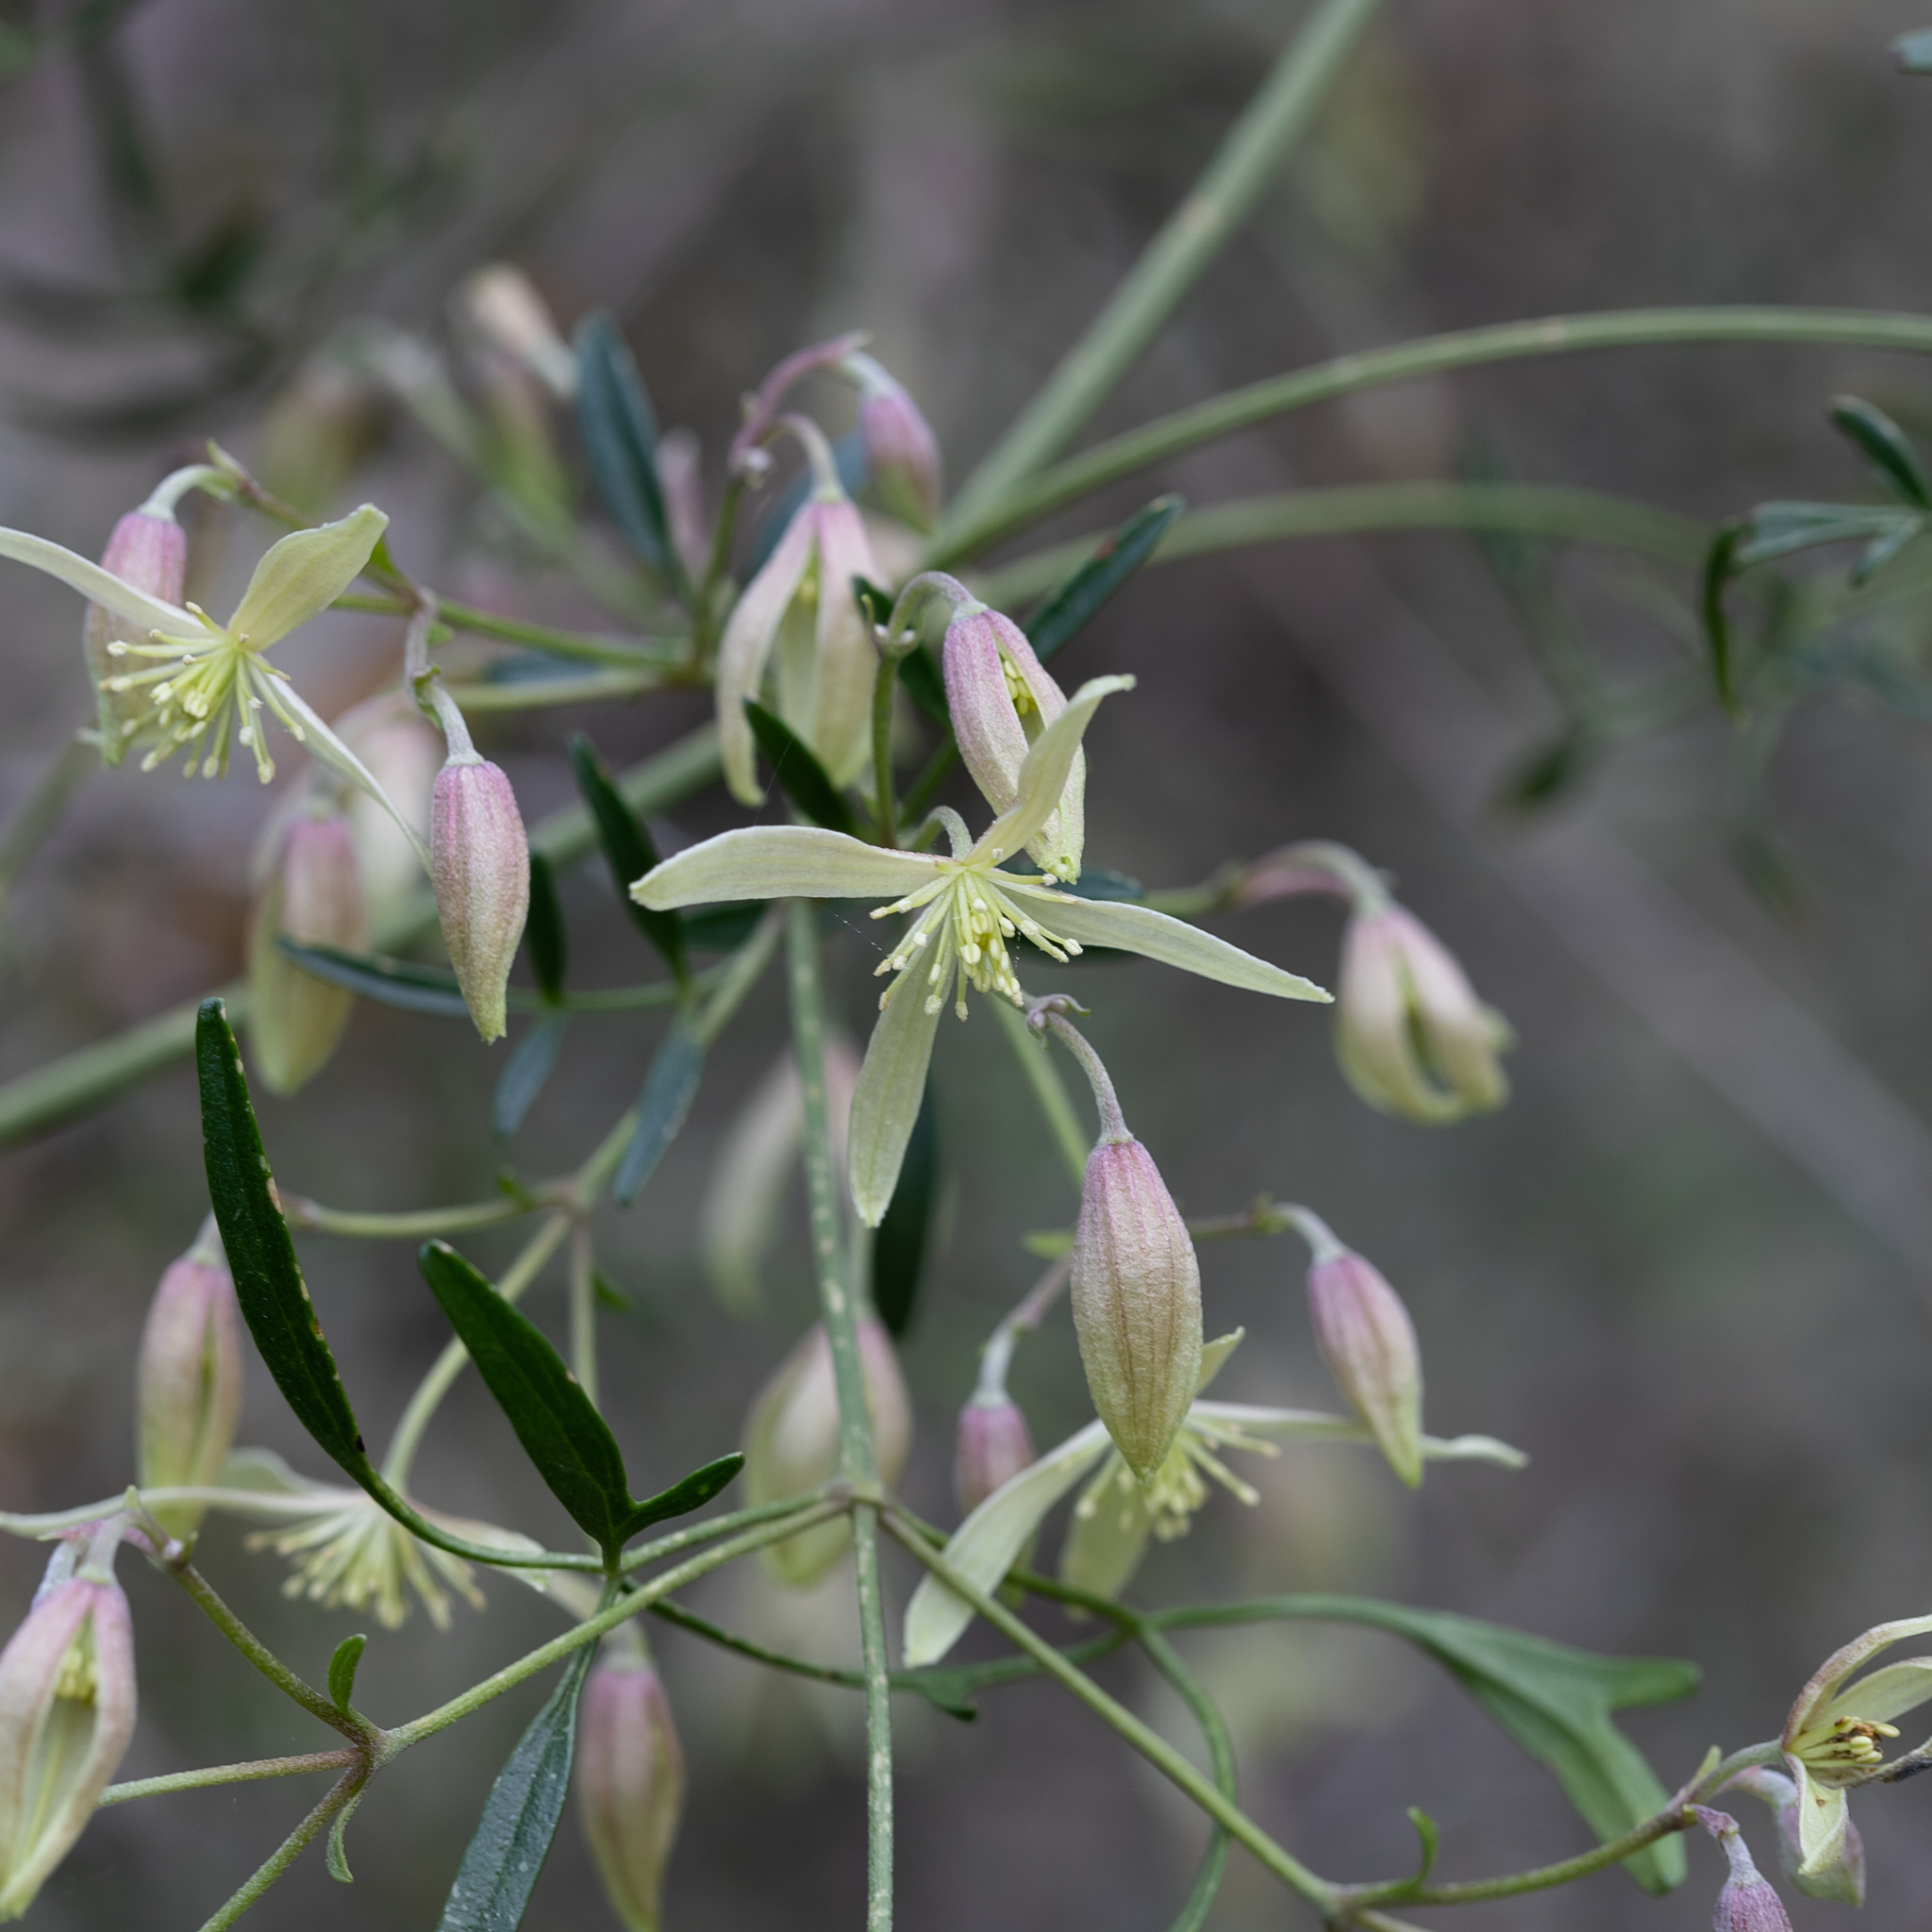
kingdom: Plantae
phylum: Tracheophyta
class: Magnoliopsida
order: Ranunculales
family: Ranunculaceae
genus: Clematis
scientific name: Clematis microphylla
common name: Headachevine
